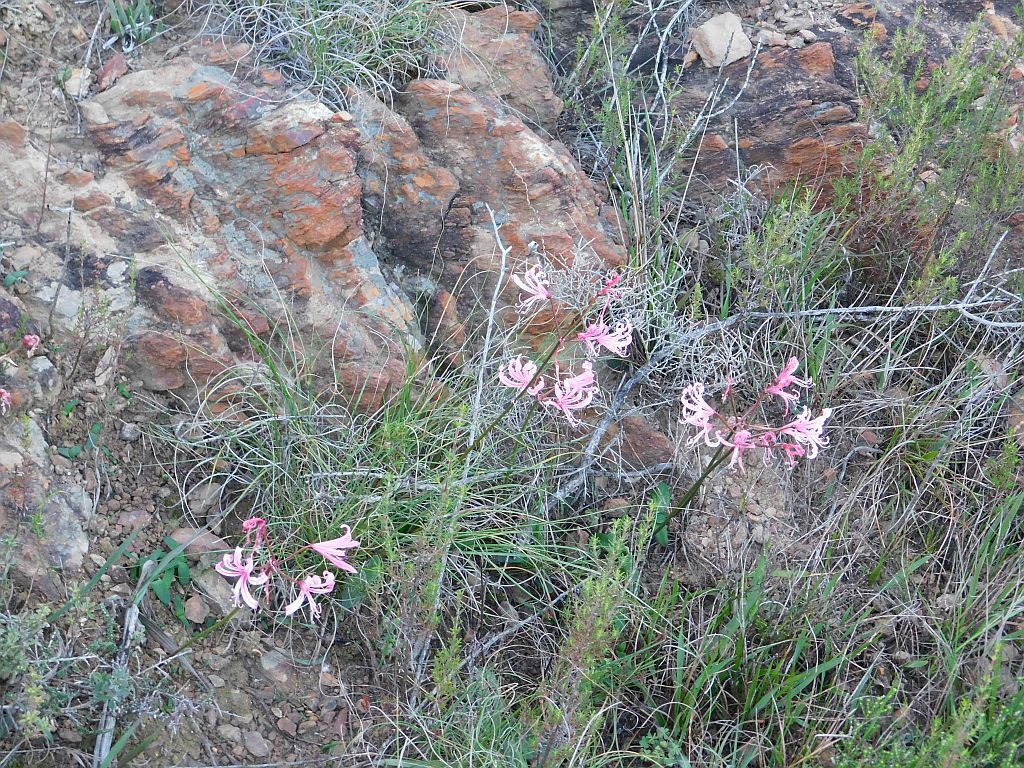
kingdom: Plantae
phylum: Tracheophyta
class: Liliopsida
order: Asparagales
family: Amaryllidaceae
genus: Nerine
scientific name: Nerine humilis
